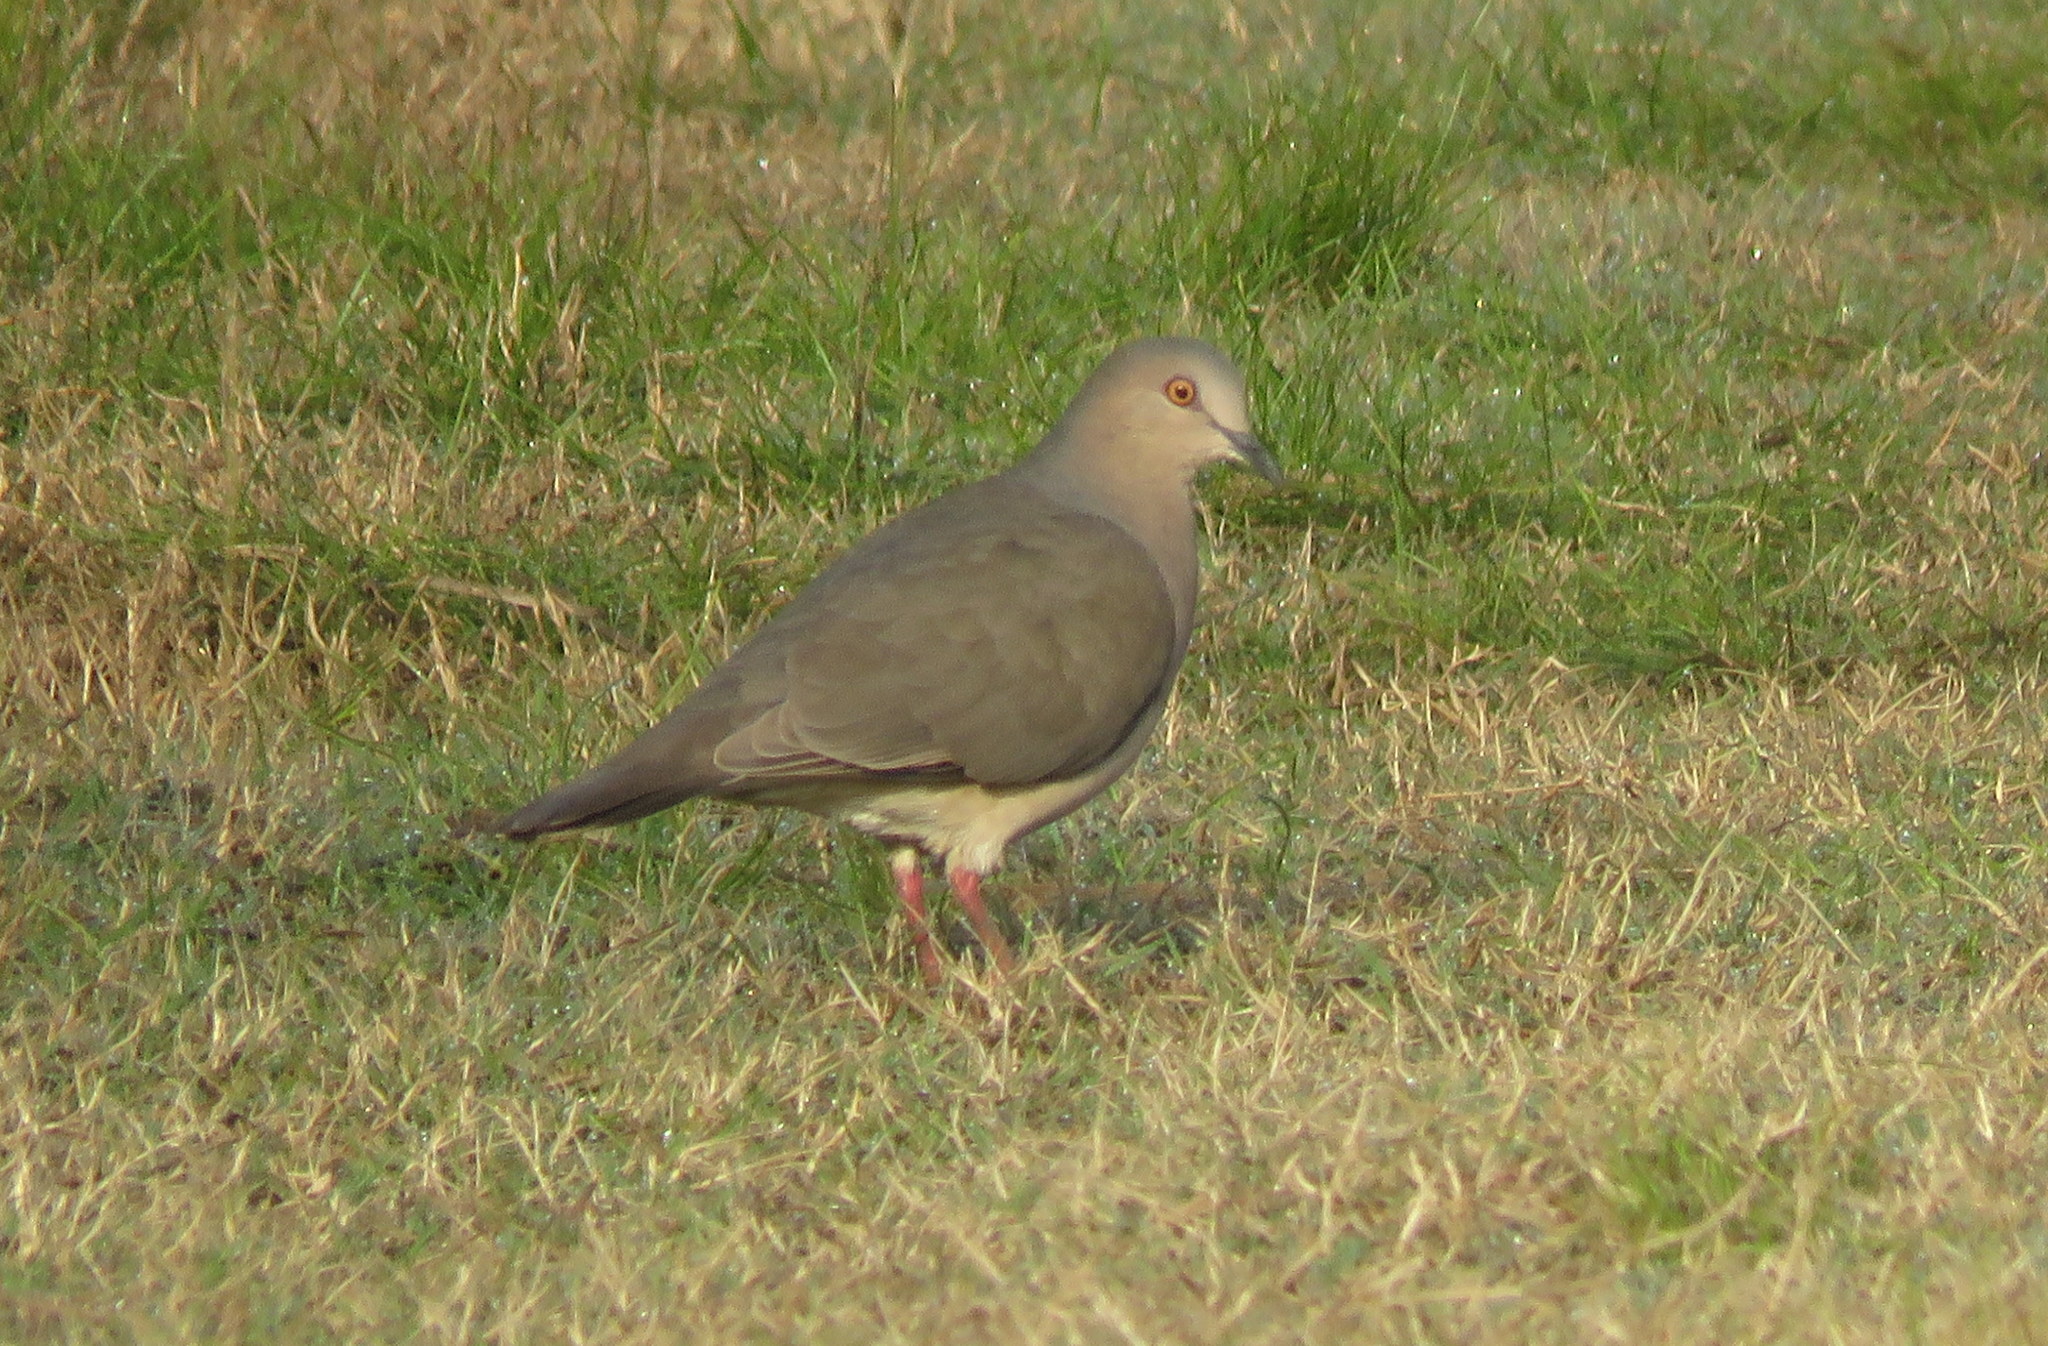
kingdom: Animalia
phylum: Chordata
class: Aves
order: Columbiformes
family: Columbidae
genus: Leptotila
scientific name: Leptotila verreauxi
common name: White-tipped dove
